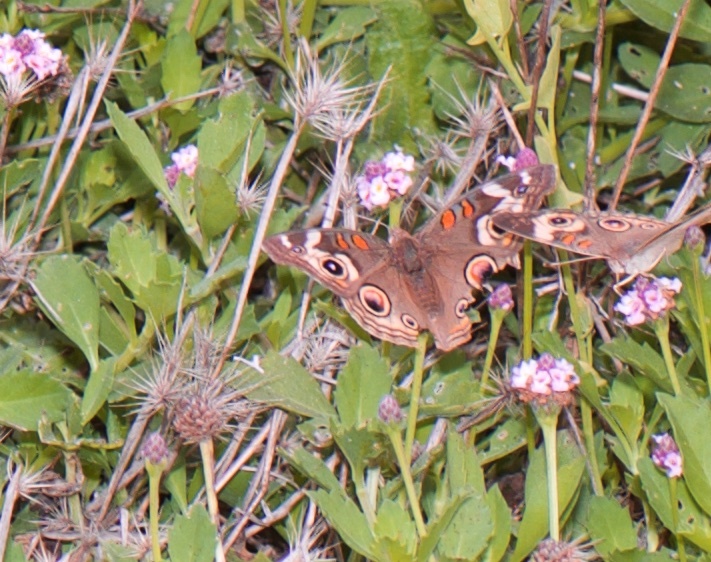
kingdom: Animalia
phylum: Arthropoda
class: Insecta
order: Lepidoptera
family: Nymphalidae
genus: Junonia
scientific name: Junonia grisea
